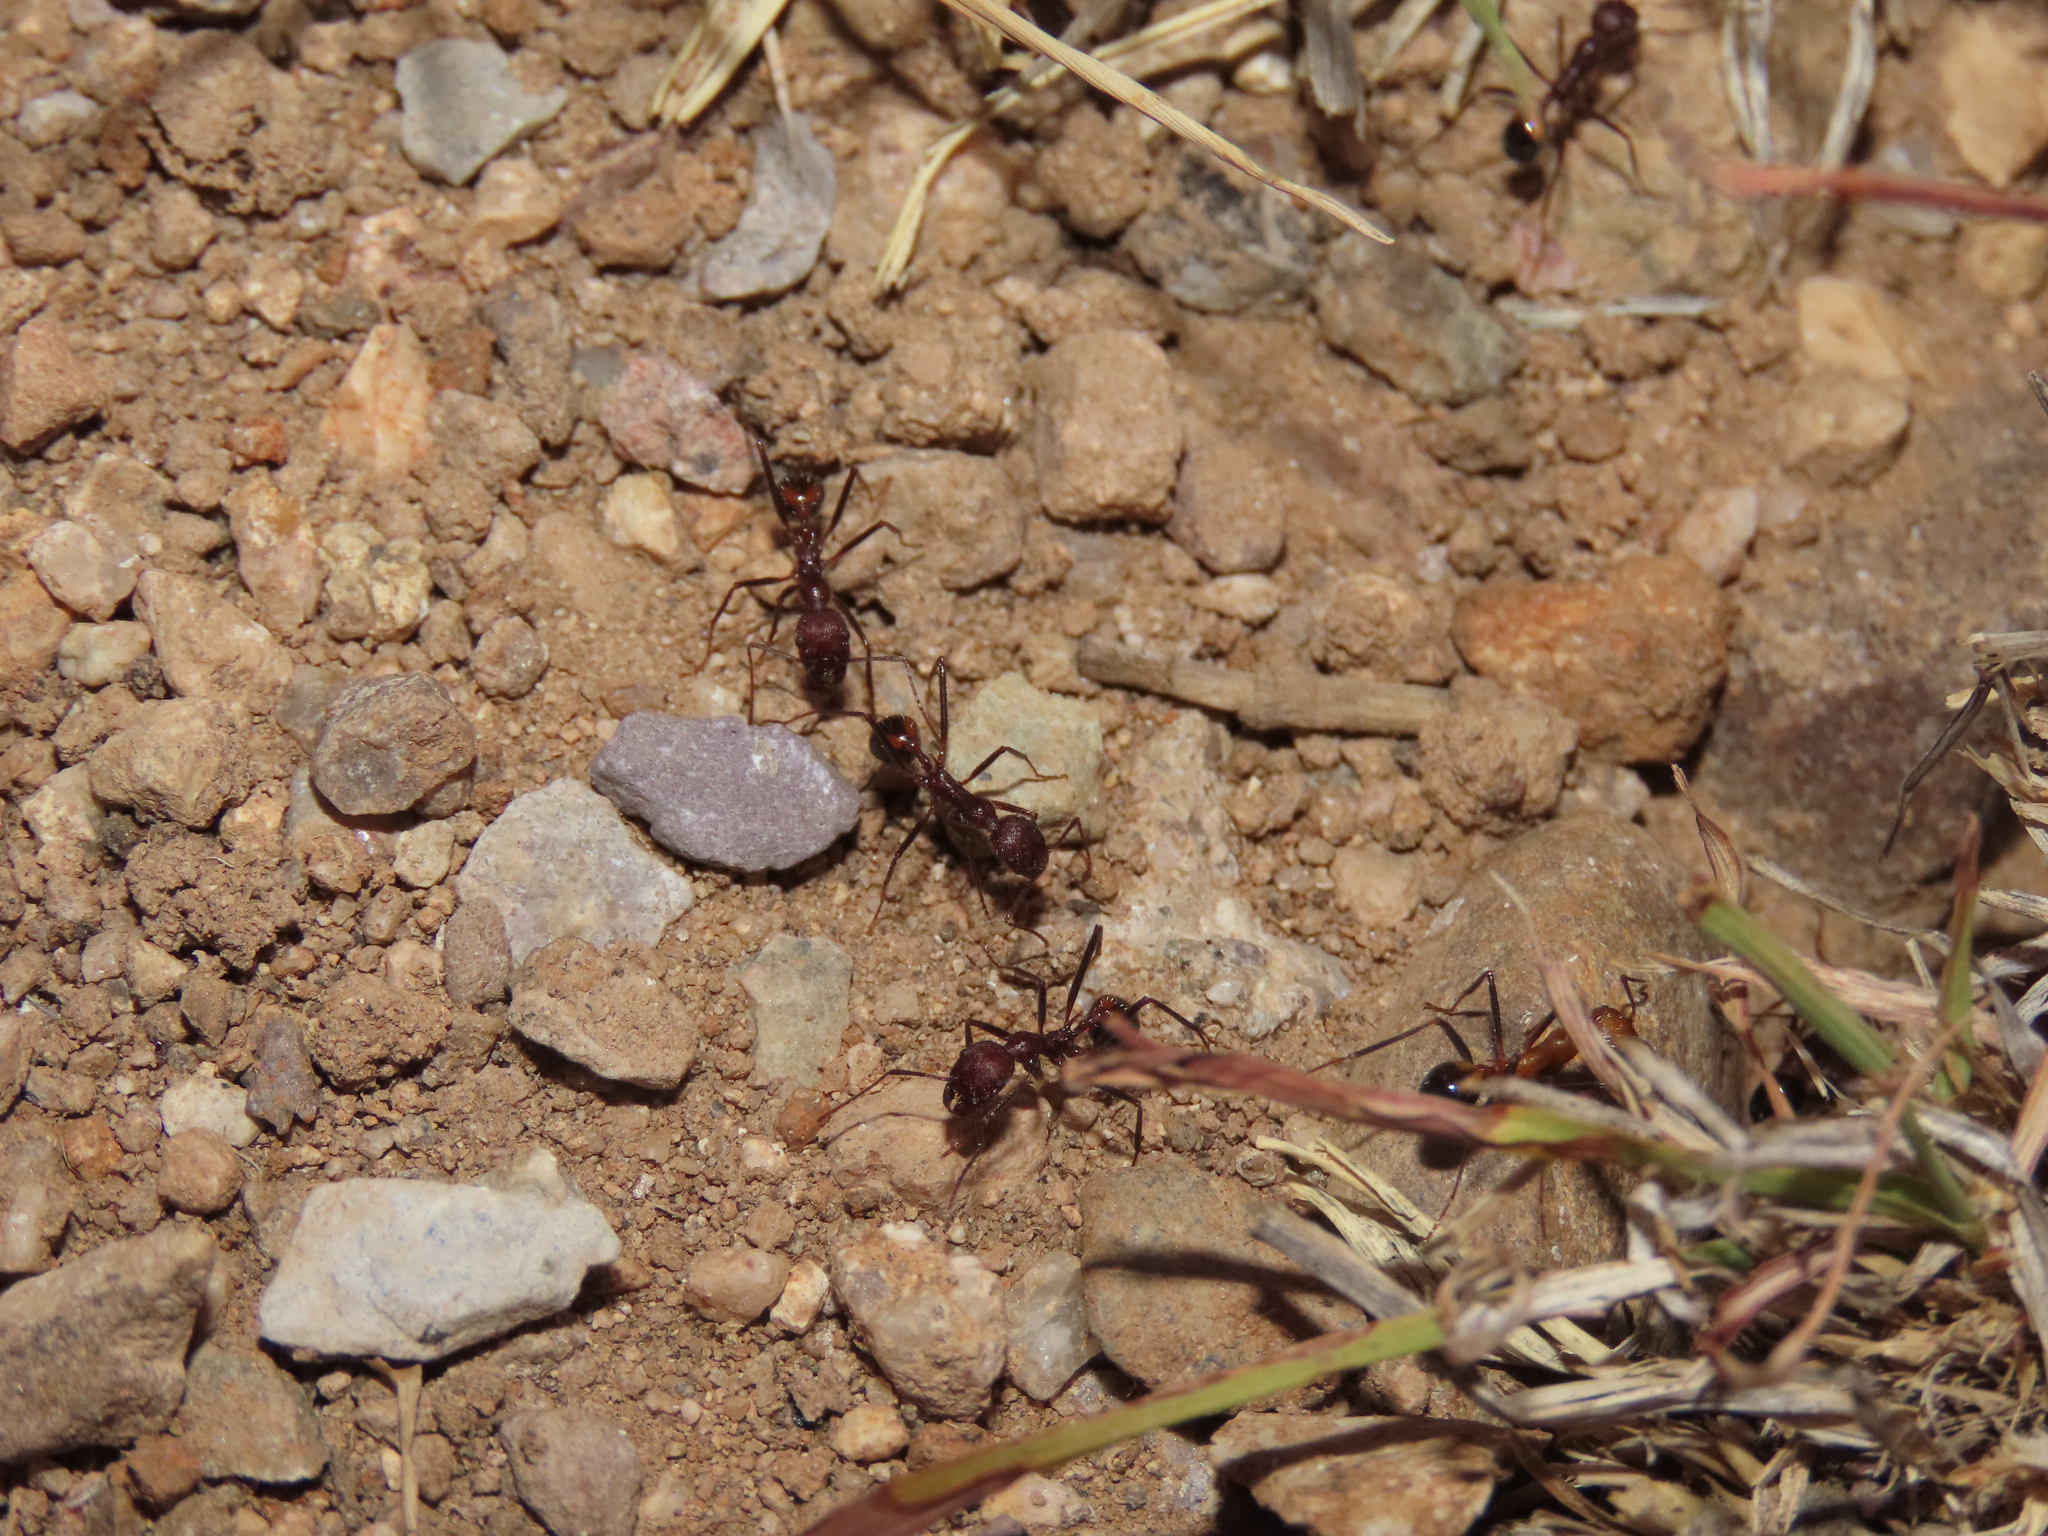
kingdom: Animalia
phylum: Arthropoda
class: Insecta
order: Hymenoptera
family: Formicidae
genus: Novomessor
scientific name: Novomessor albisetosa
